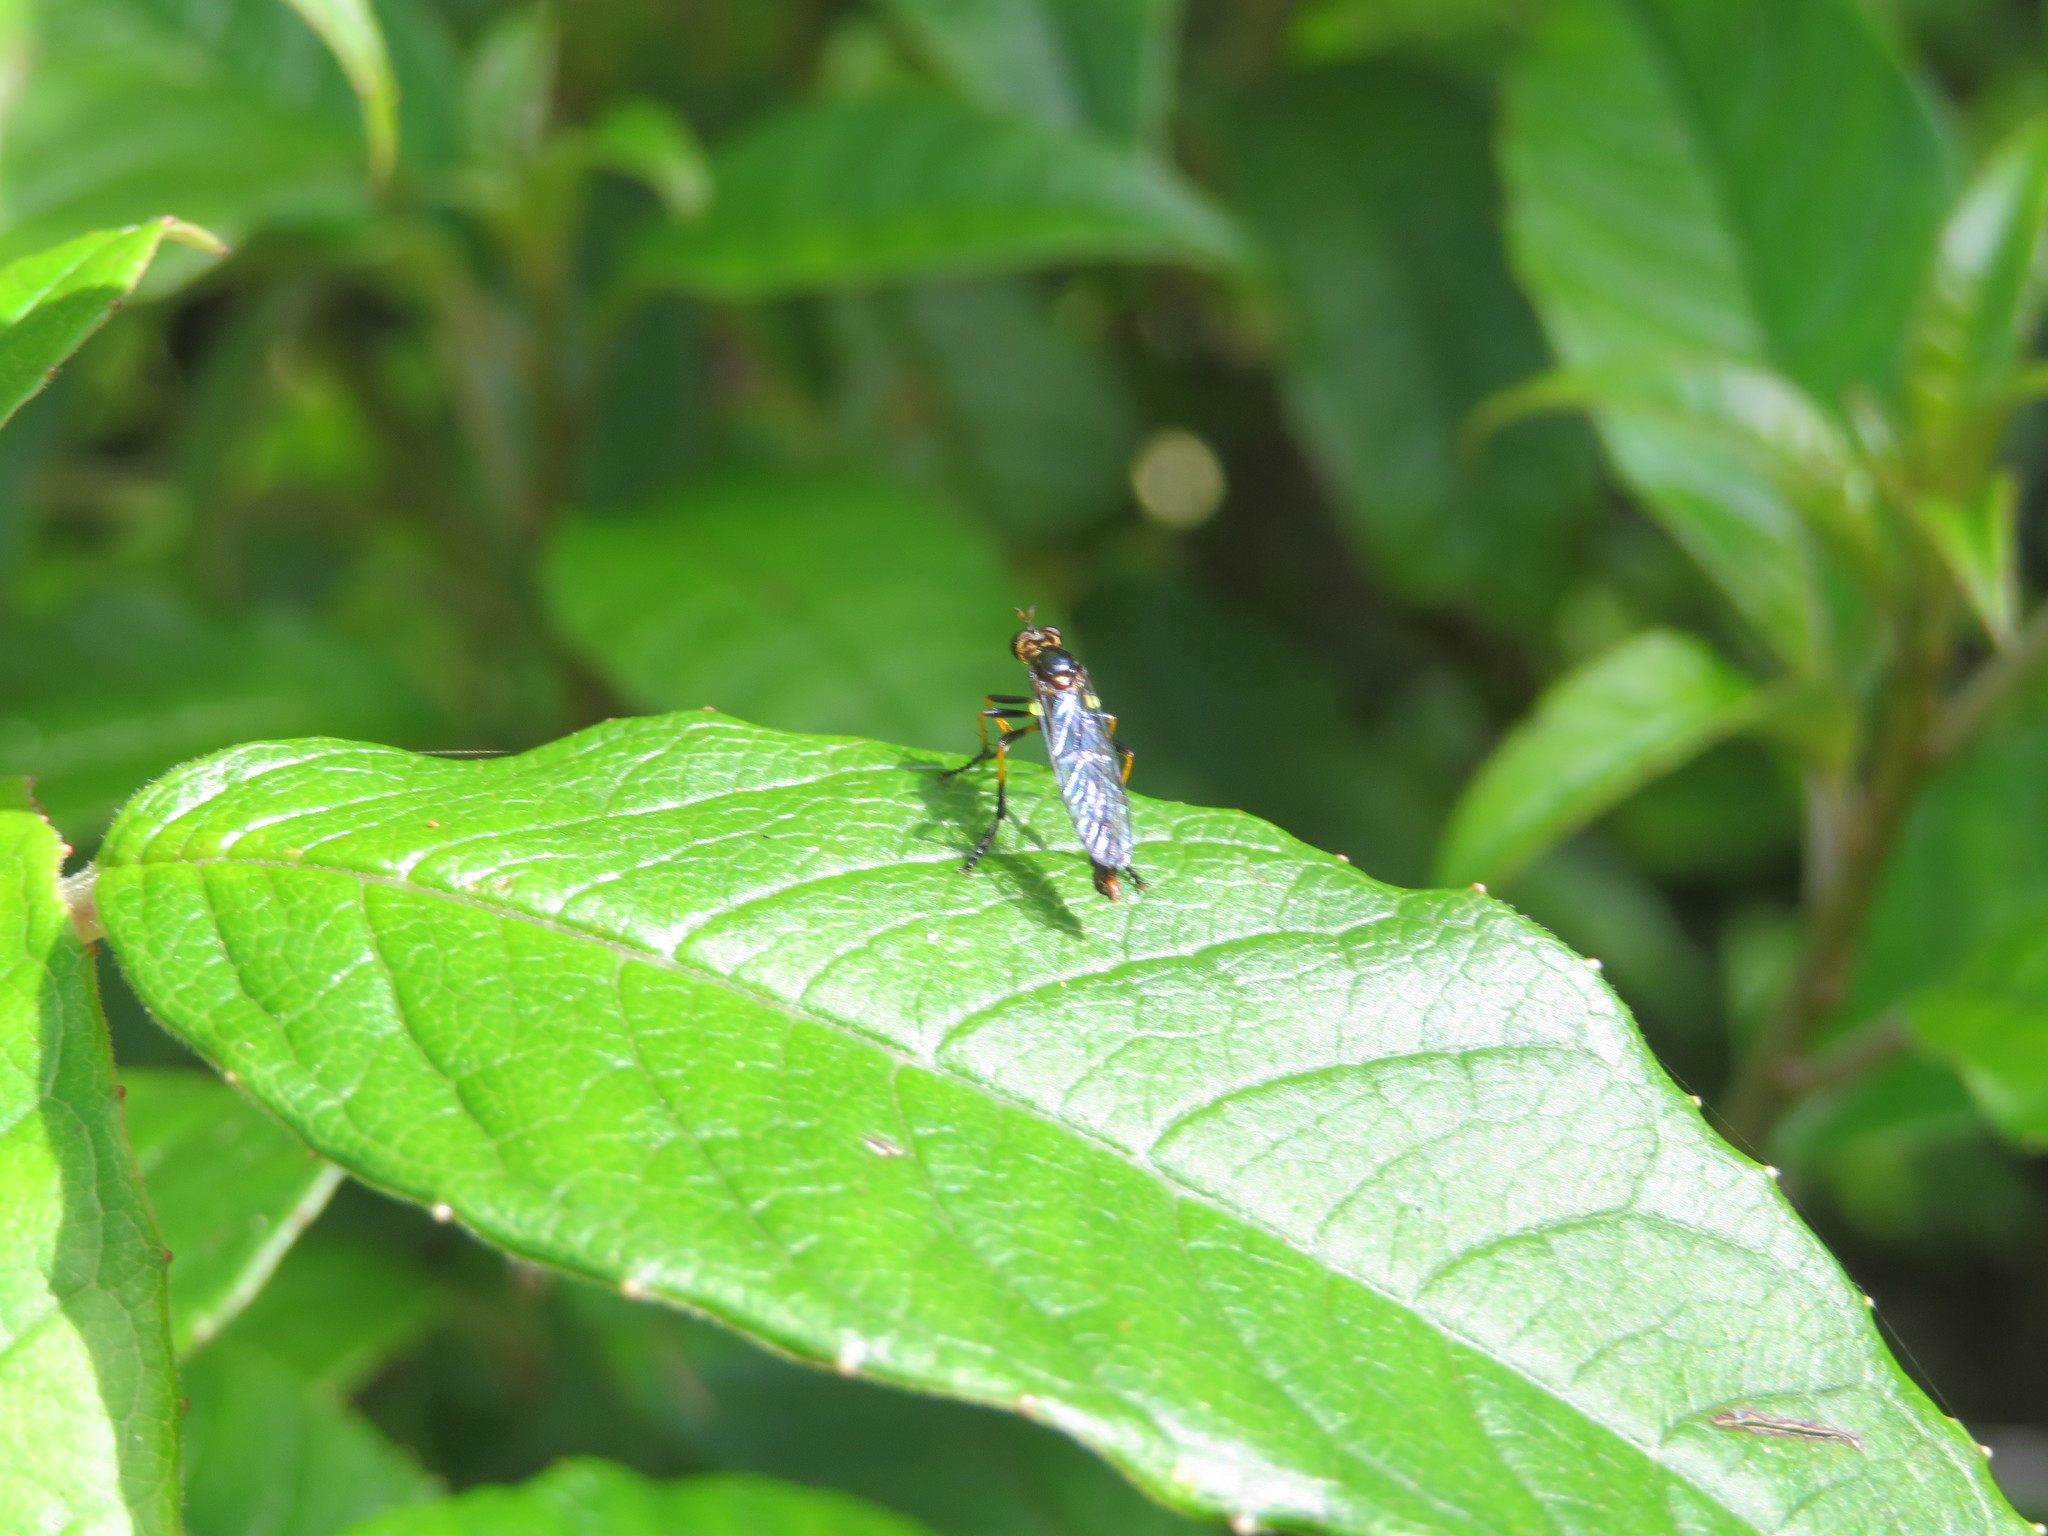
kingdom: Animalia
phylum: Arthropoda
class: Insecta
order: Diptera
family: Asilidae
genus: Saropogon
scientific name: Saropogon fascipes
